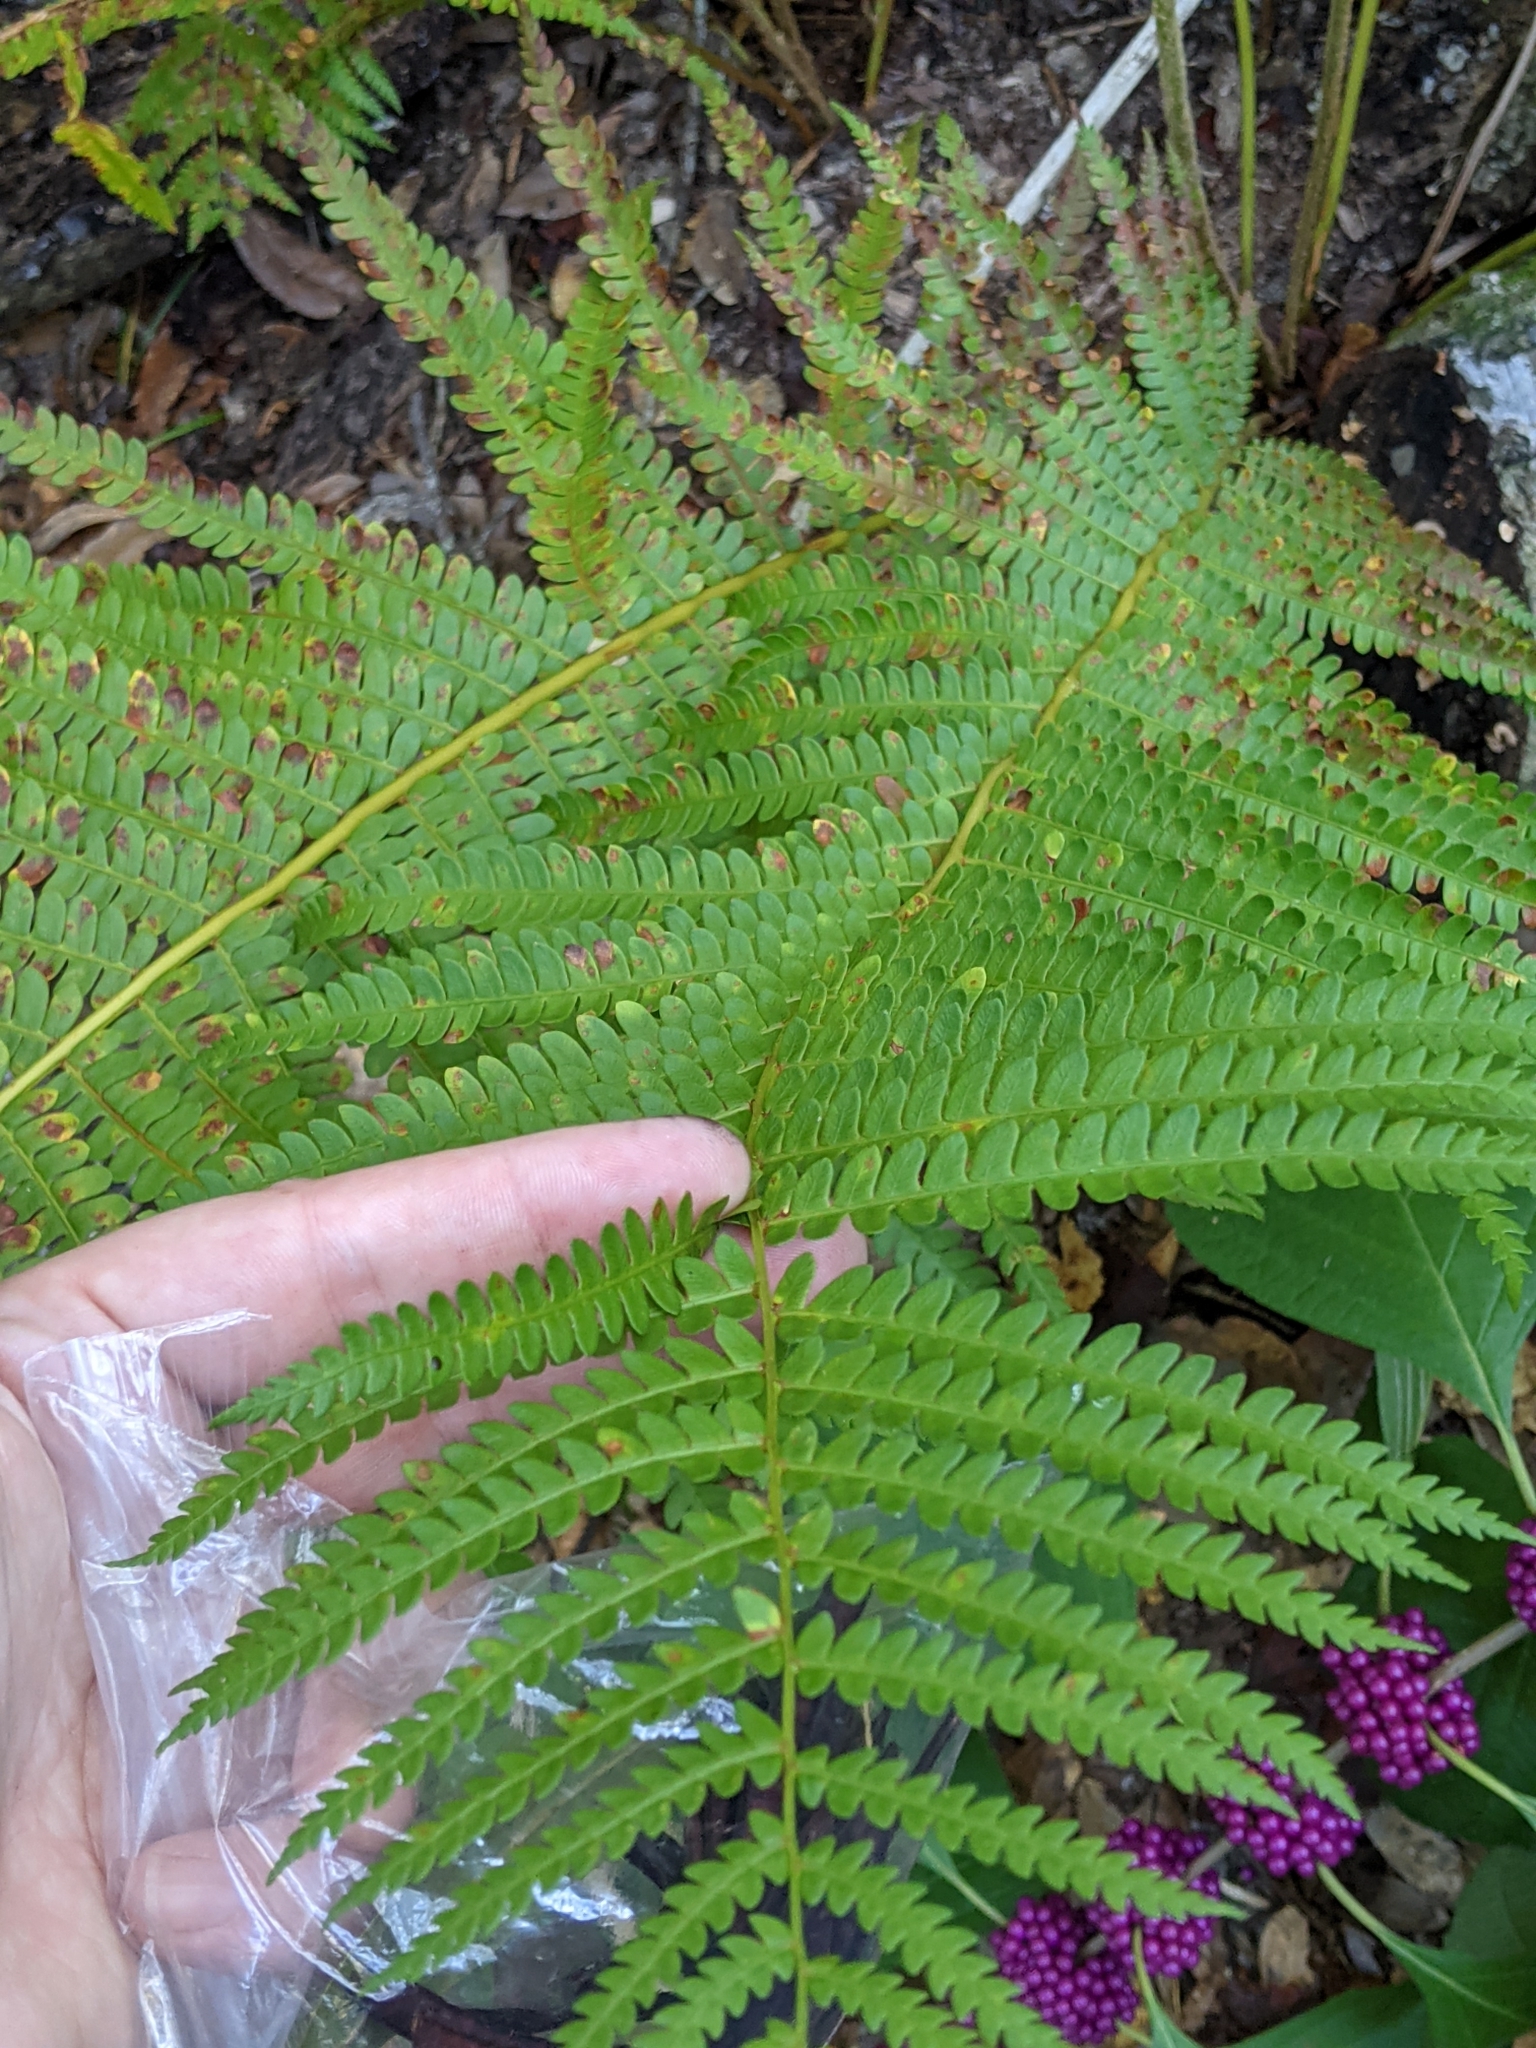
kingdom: Plantae
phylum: Tracheophyta
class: Polypodiopsida
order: Osmundales
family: Osmundaceae
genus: Osmundastrum
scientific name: Osmundastrum cinnamomeum
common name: Cinnamon fern
